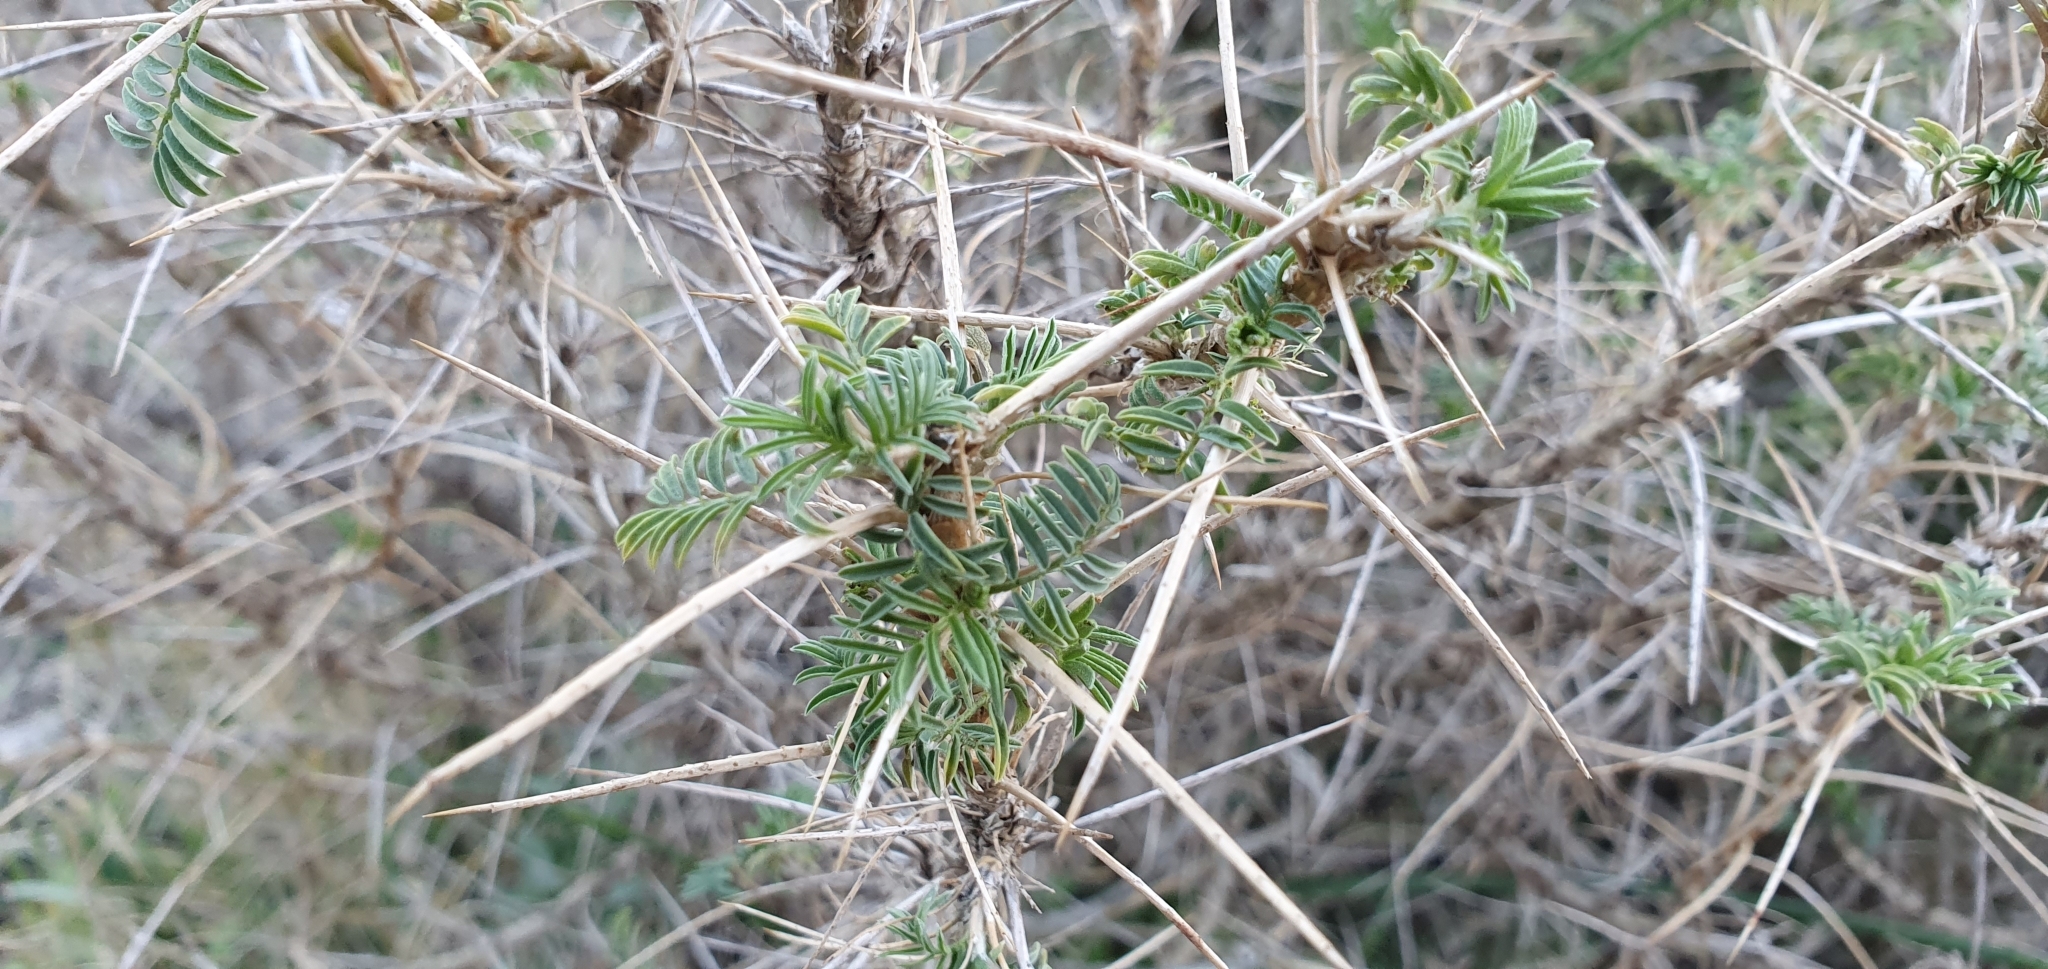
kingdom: Plantae
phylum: Tracheophyta
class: Magnoliopsida
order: Fabales
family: Fabaceae
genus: Astragalus
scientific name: Astragalus armatus
